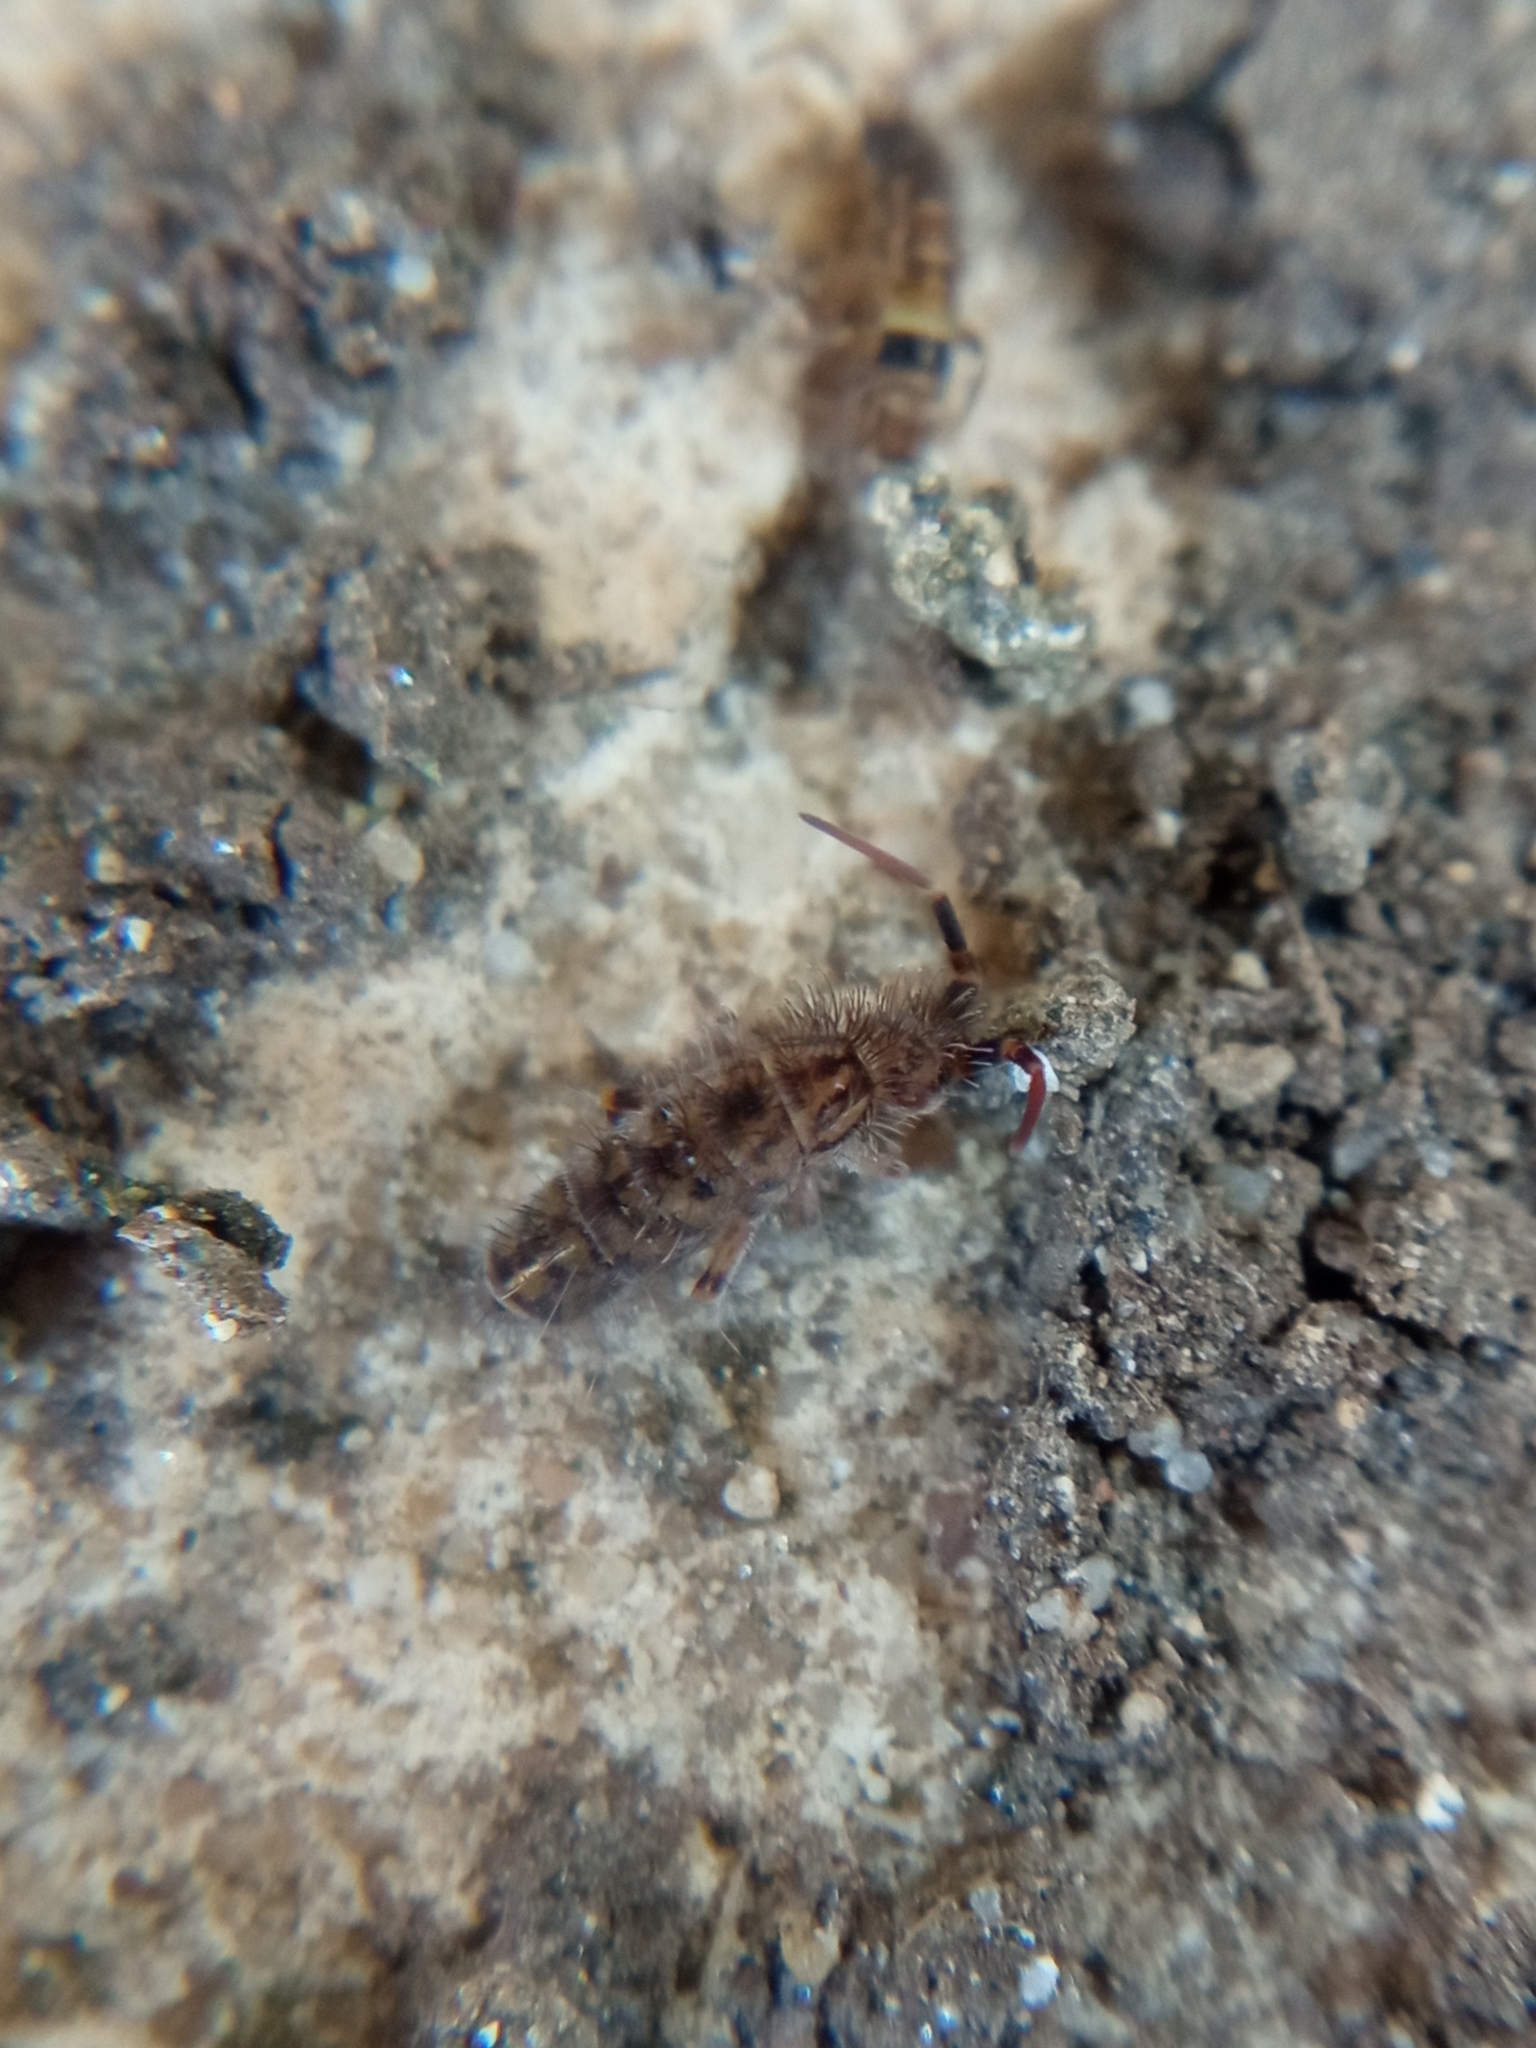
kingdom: Animalia
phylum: Arthropoda
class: Collembola
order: Entomobryomorpha
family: Orchesellidae
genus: Orchesella
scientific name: Orchesella villosa
